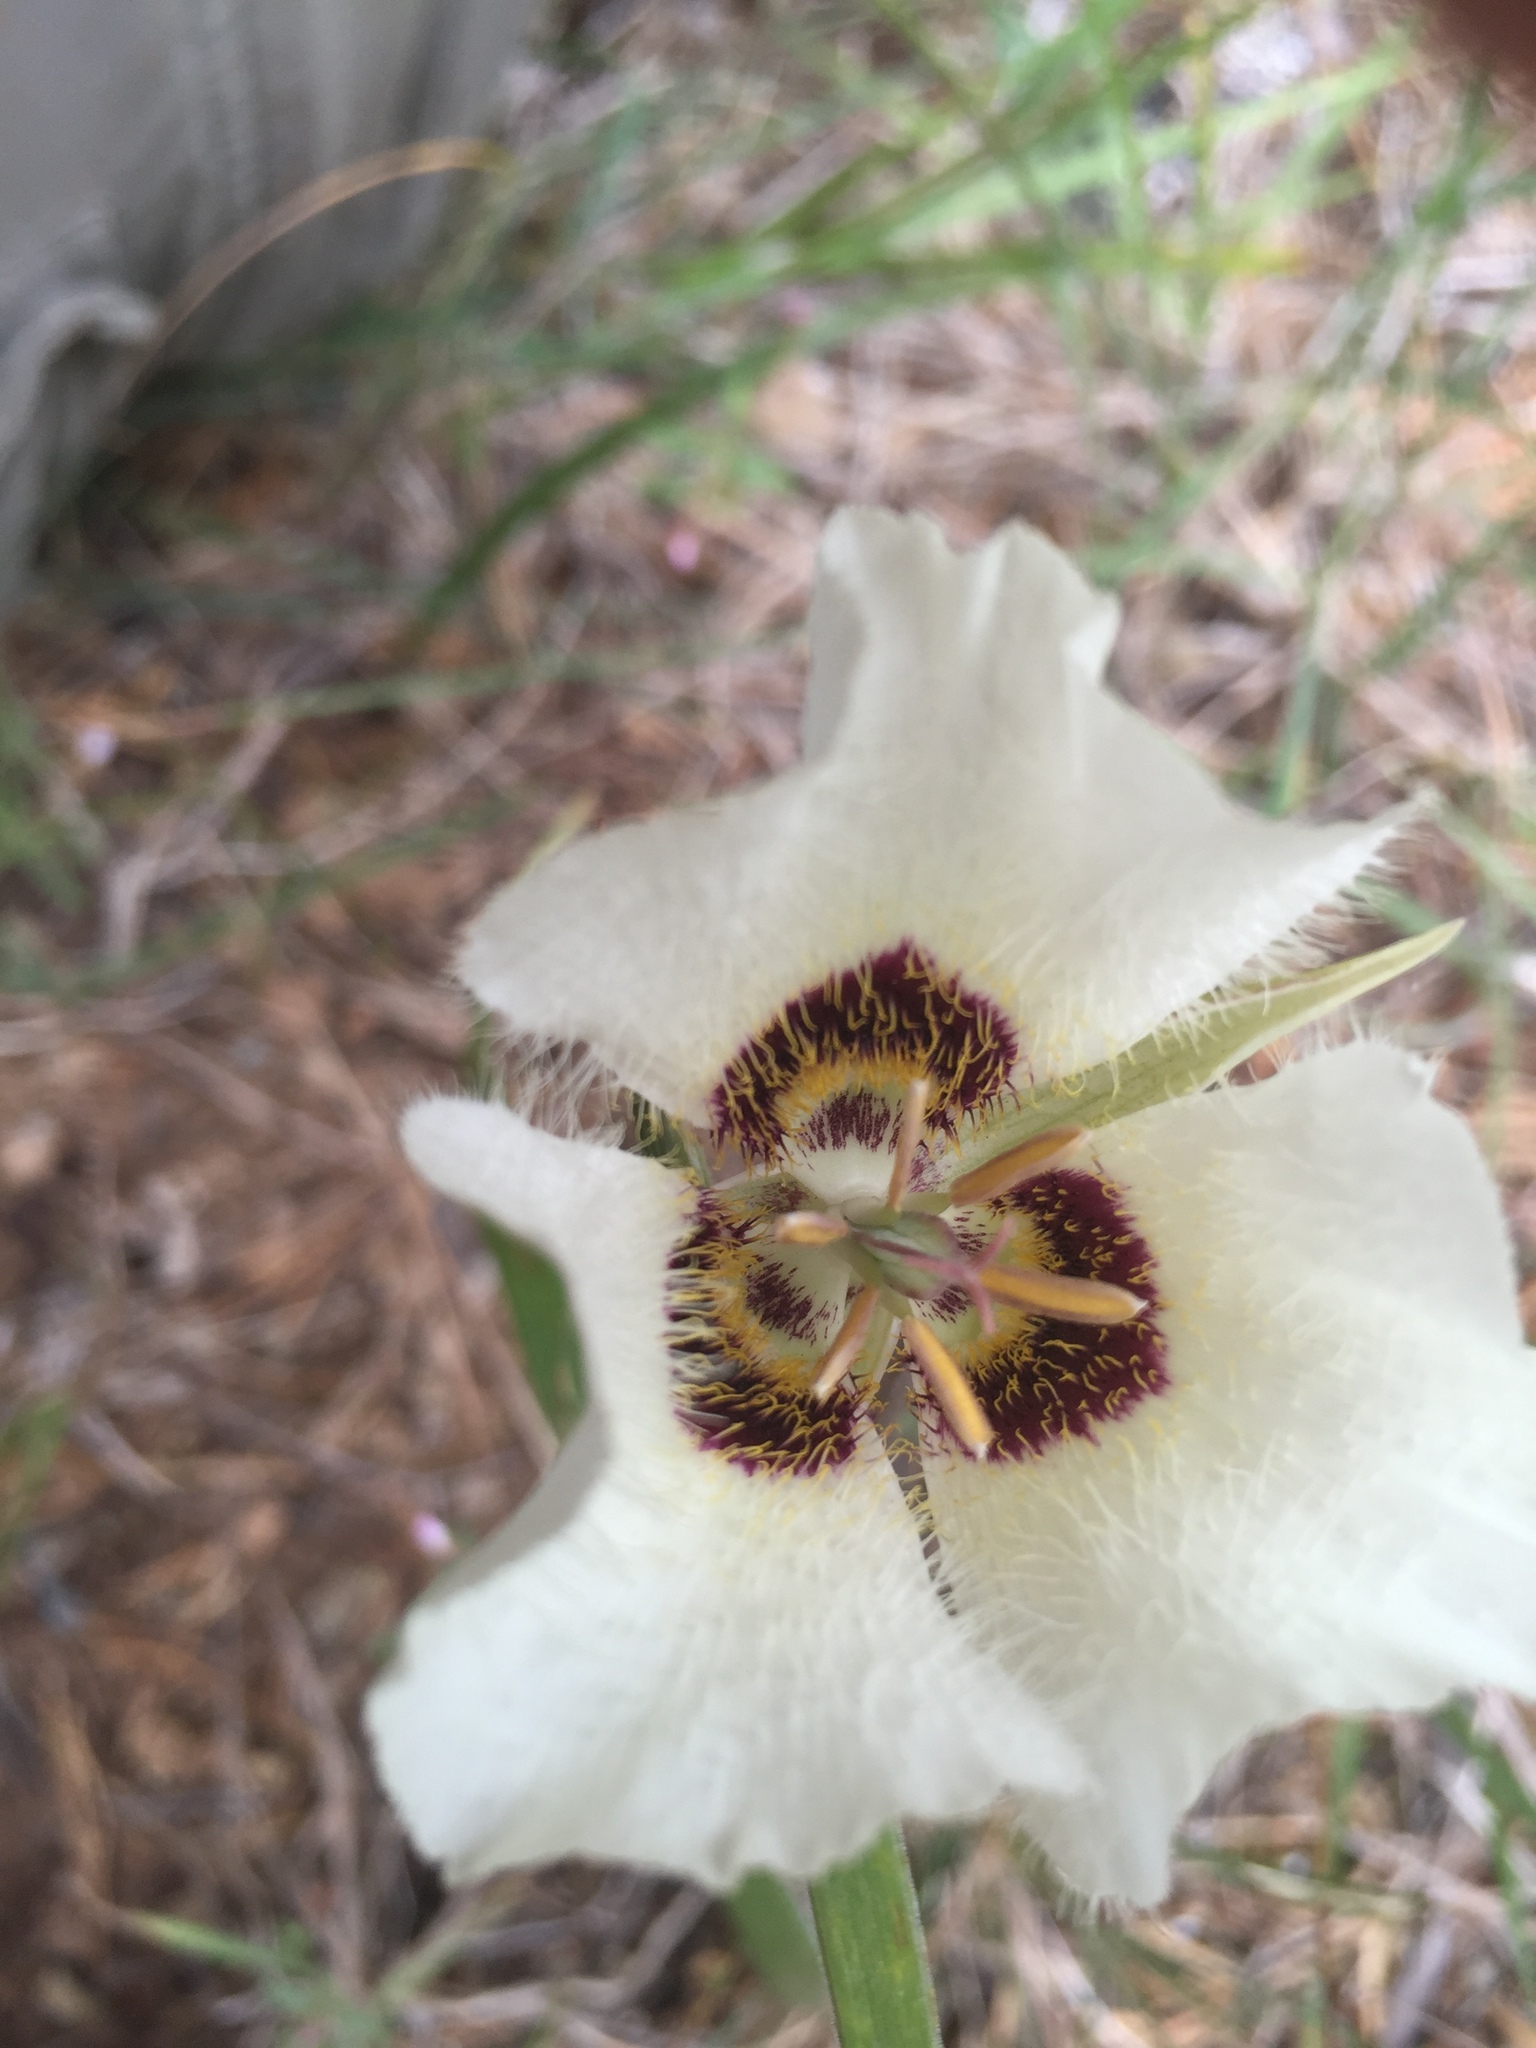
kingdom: Plantae
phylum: Tracheophyta
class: Liliopsida
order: Liliales
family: Liliaceae
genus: Calochortus
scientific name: Calochortus umpquaensis
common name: Umpqua mariposa-lily
